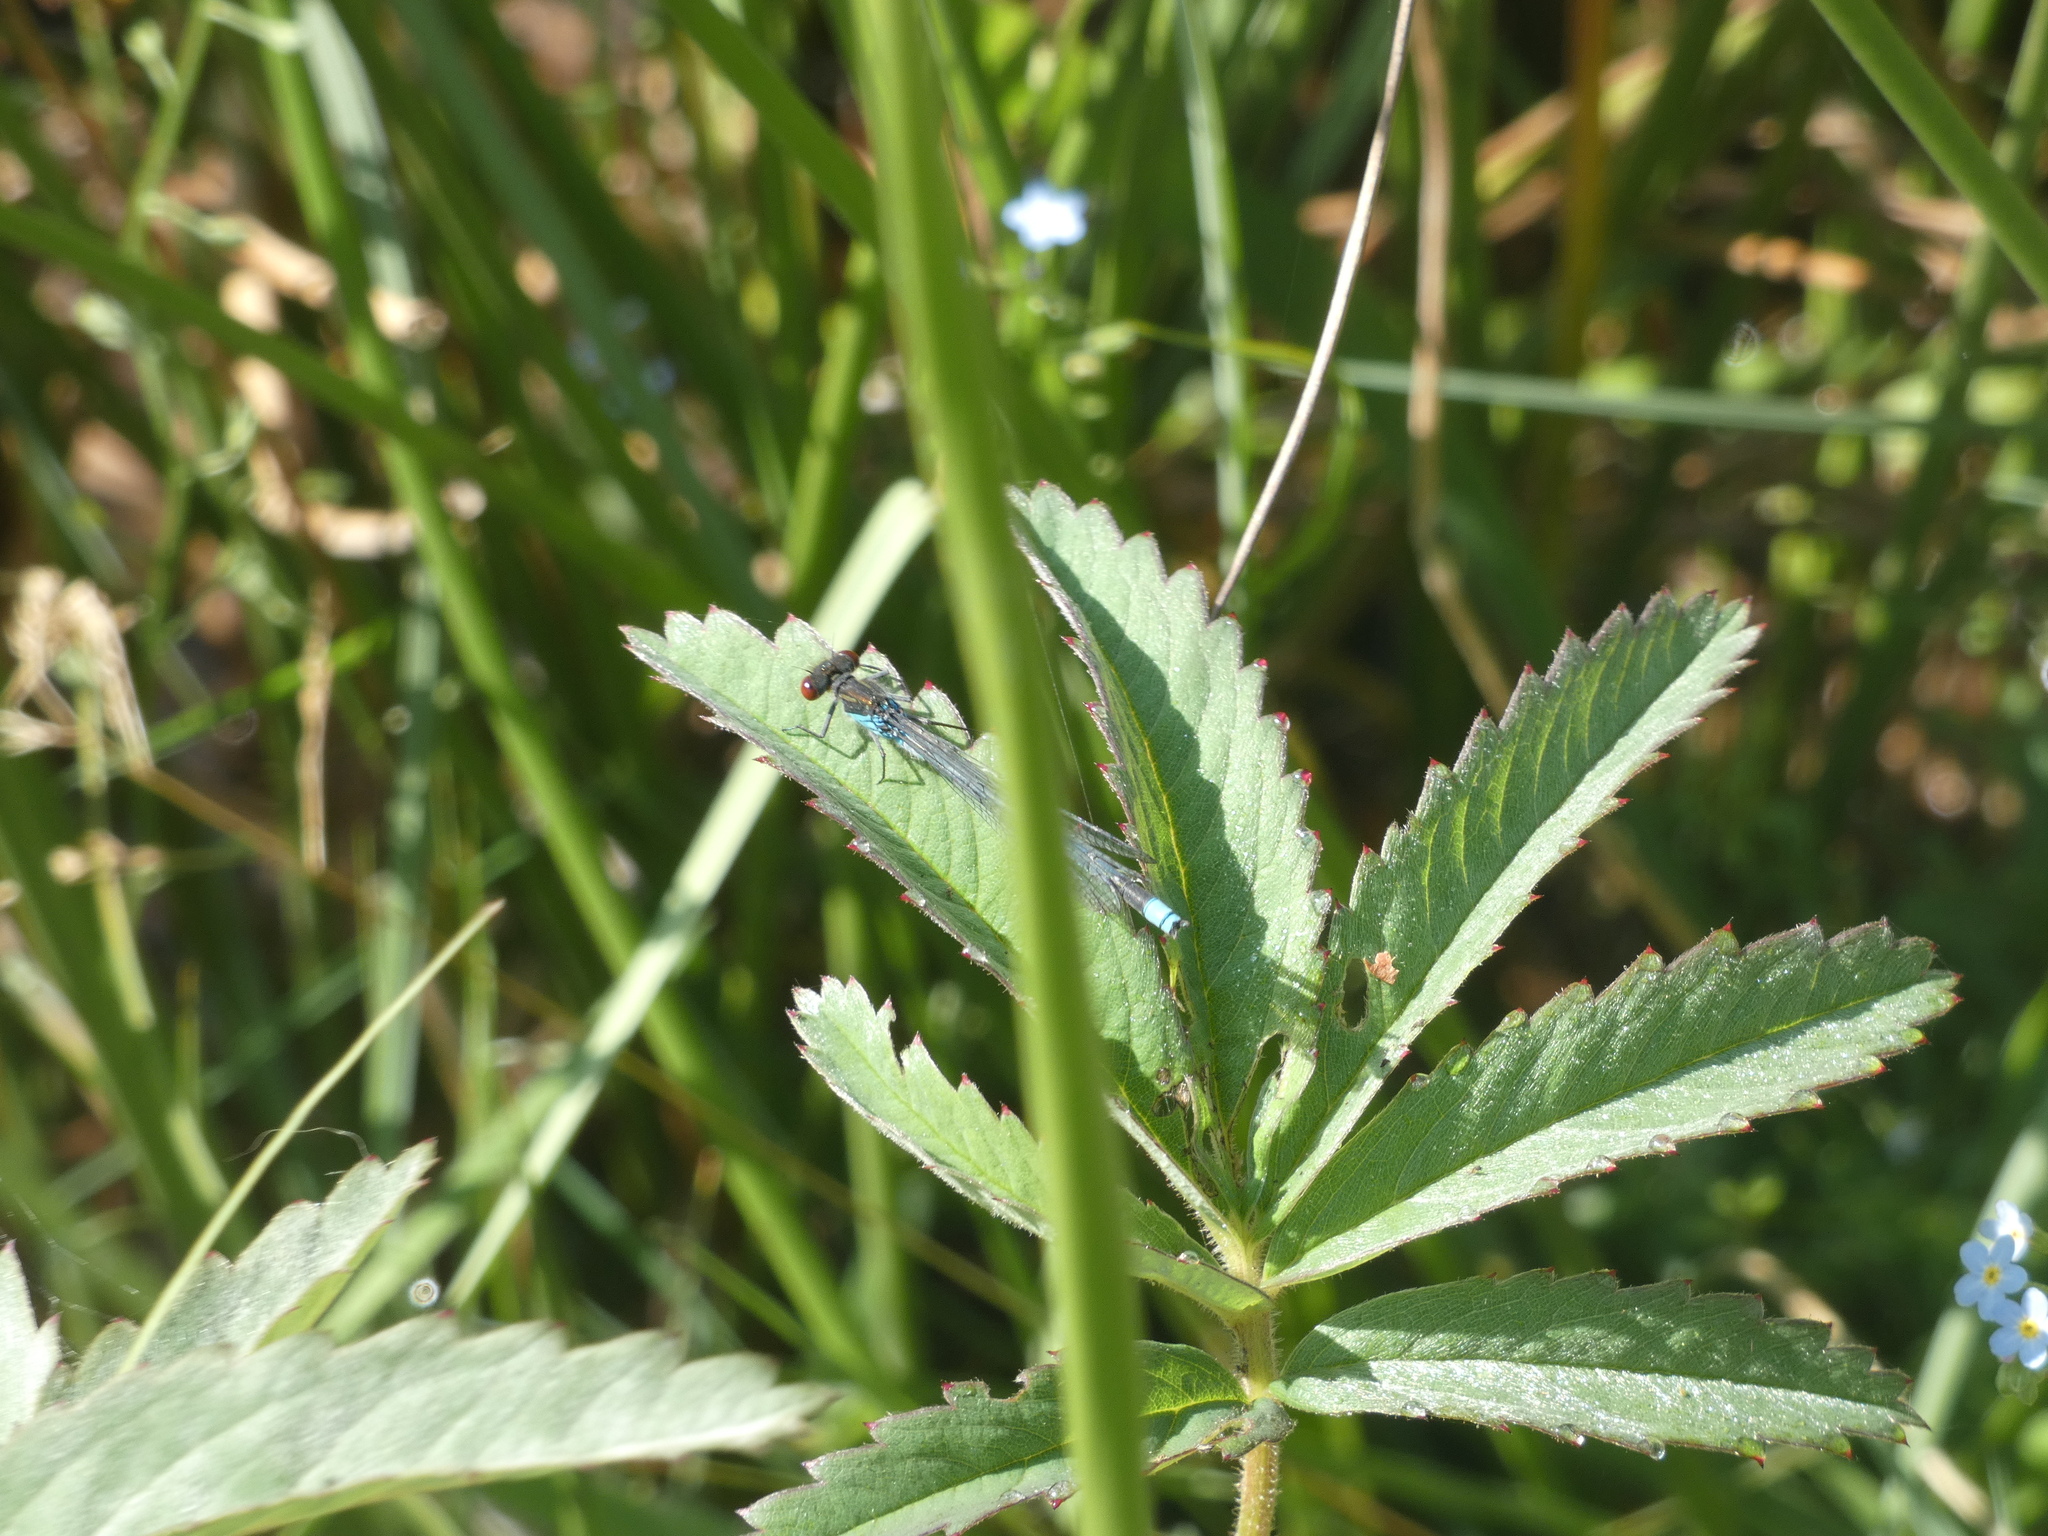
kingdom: Animalia
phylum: Arthropoda
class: Insecta
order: Odonata
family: Coenagrionidae
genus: Erythromma
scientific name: Erythromma najas
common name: Red-eyed damselfly
